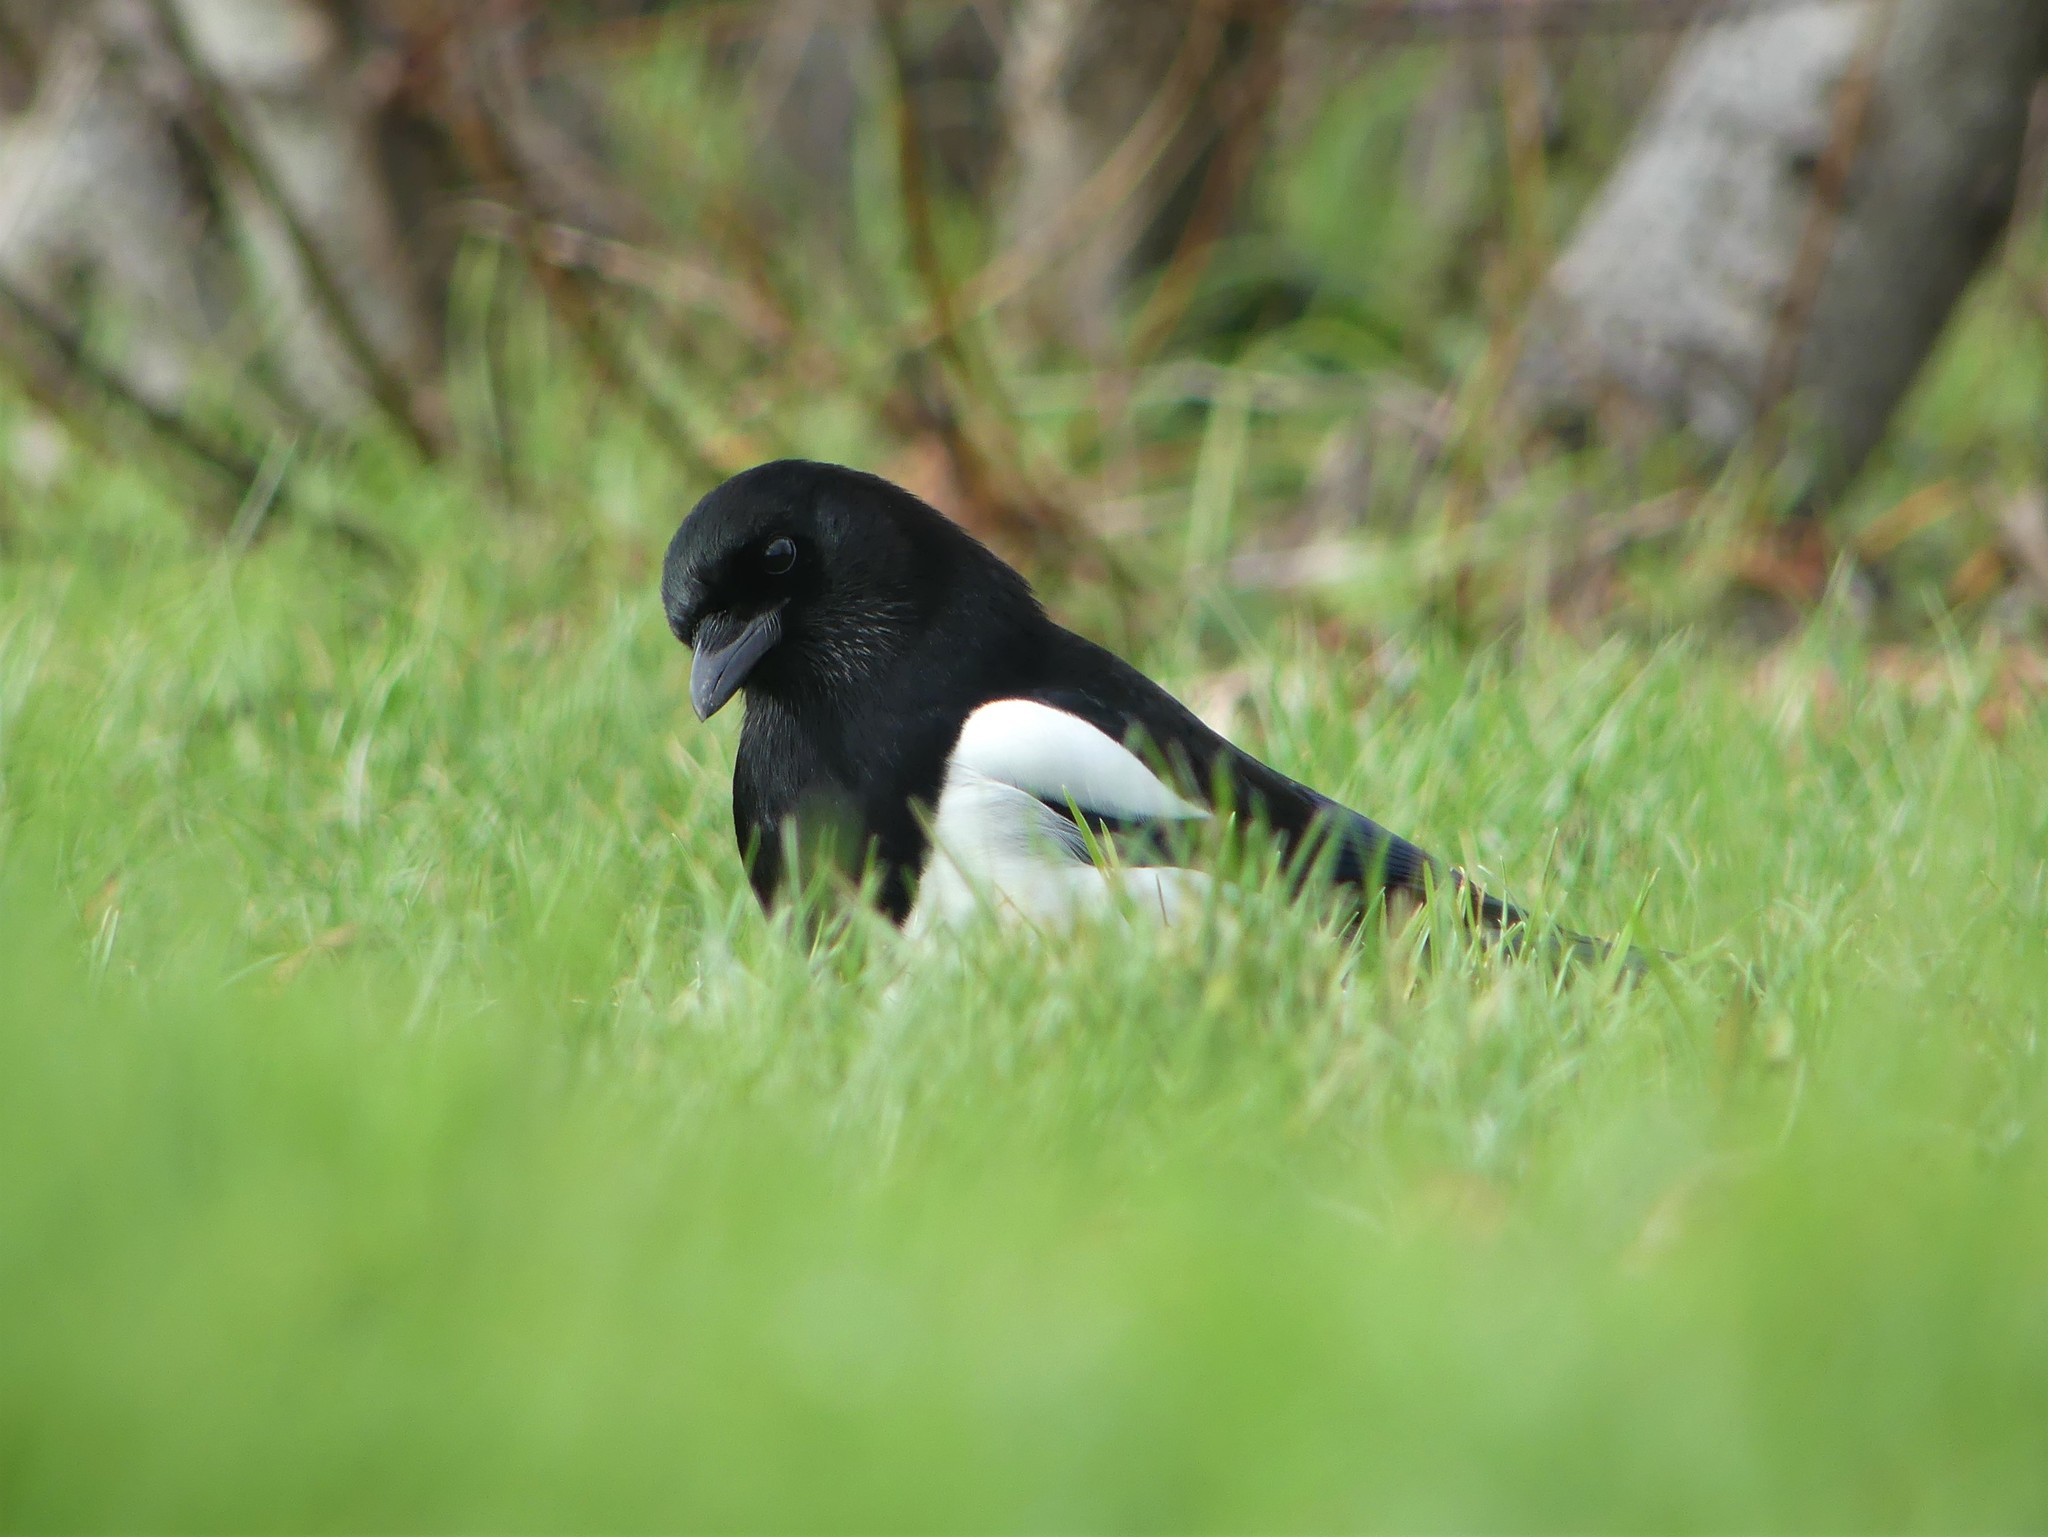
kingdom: Animalia
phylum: Chordata
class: Aves
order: Passeriformes
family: Corvidae
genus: Pica
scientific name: Pica pica
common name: Eurasian magpie
